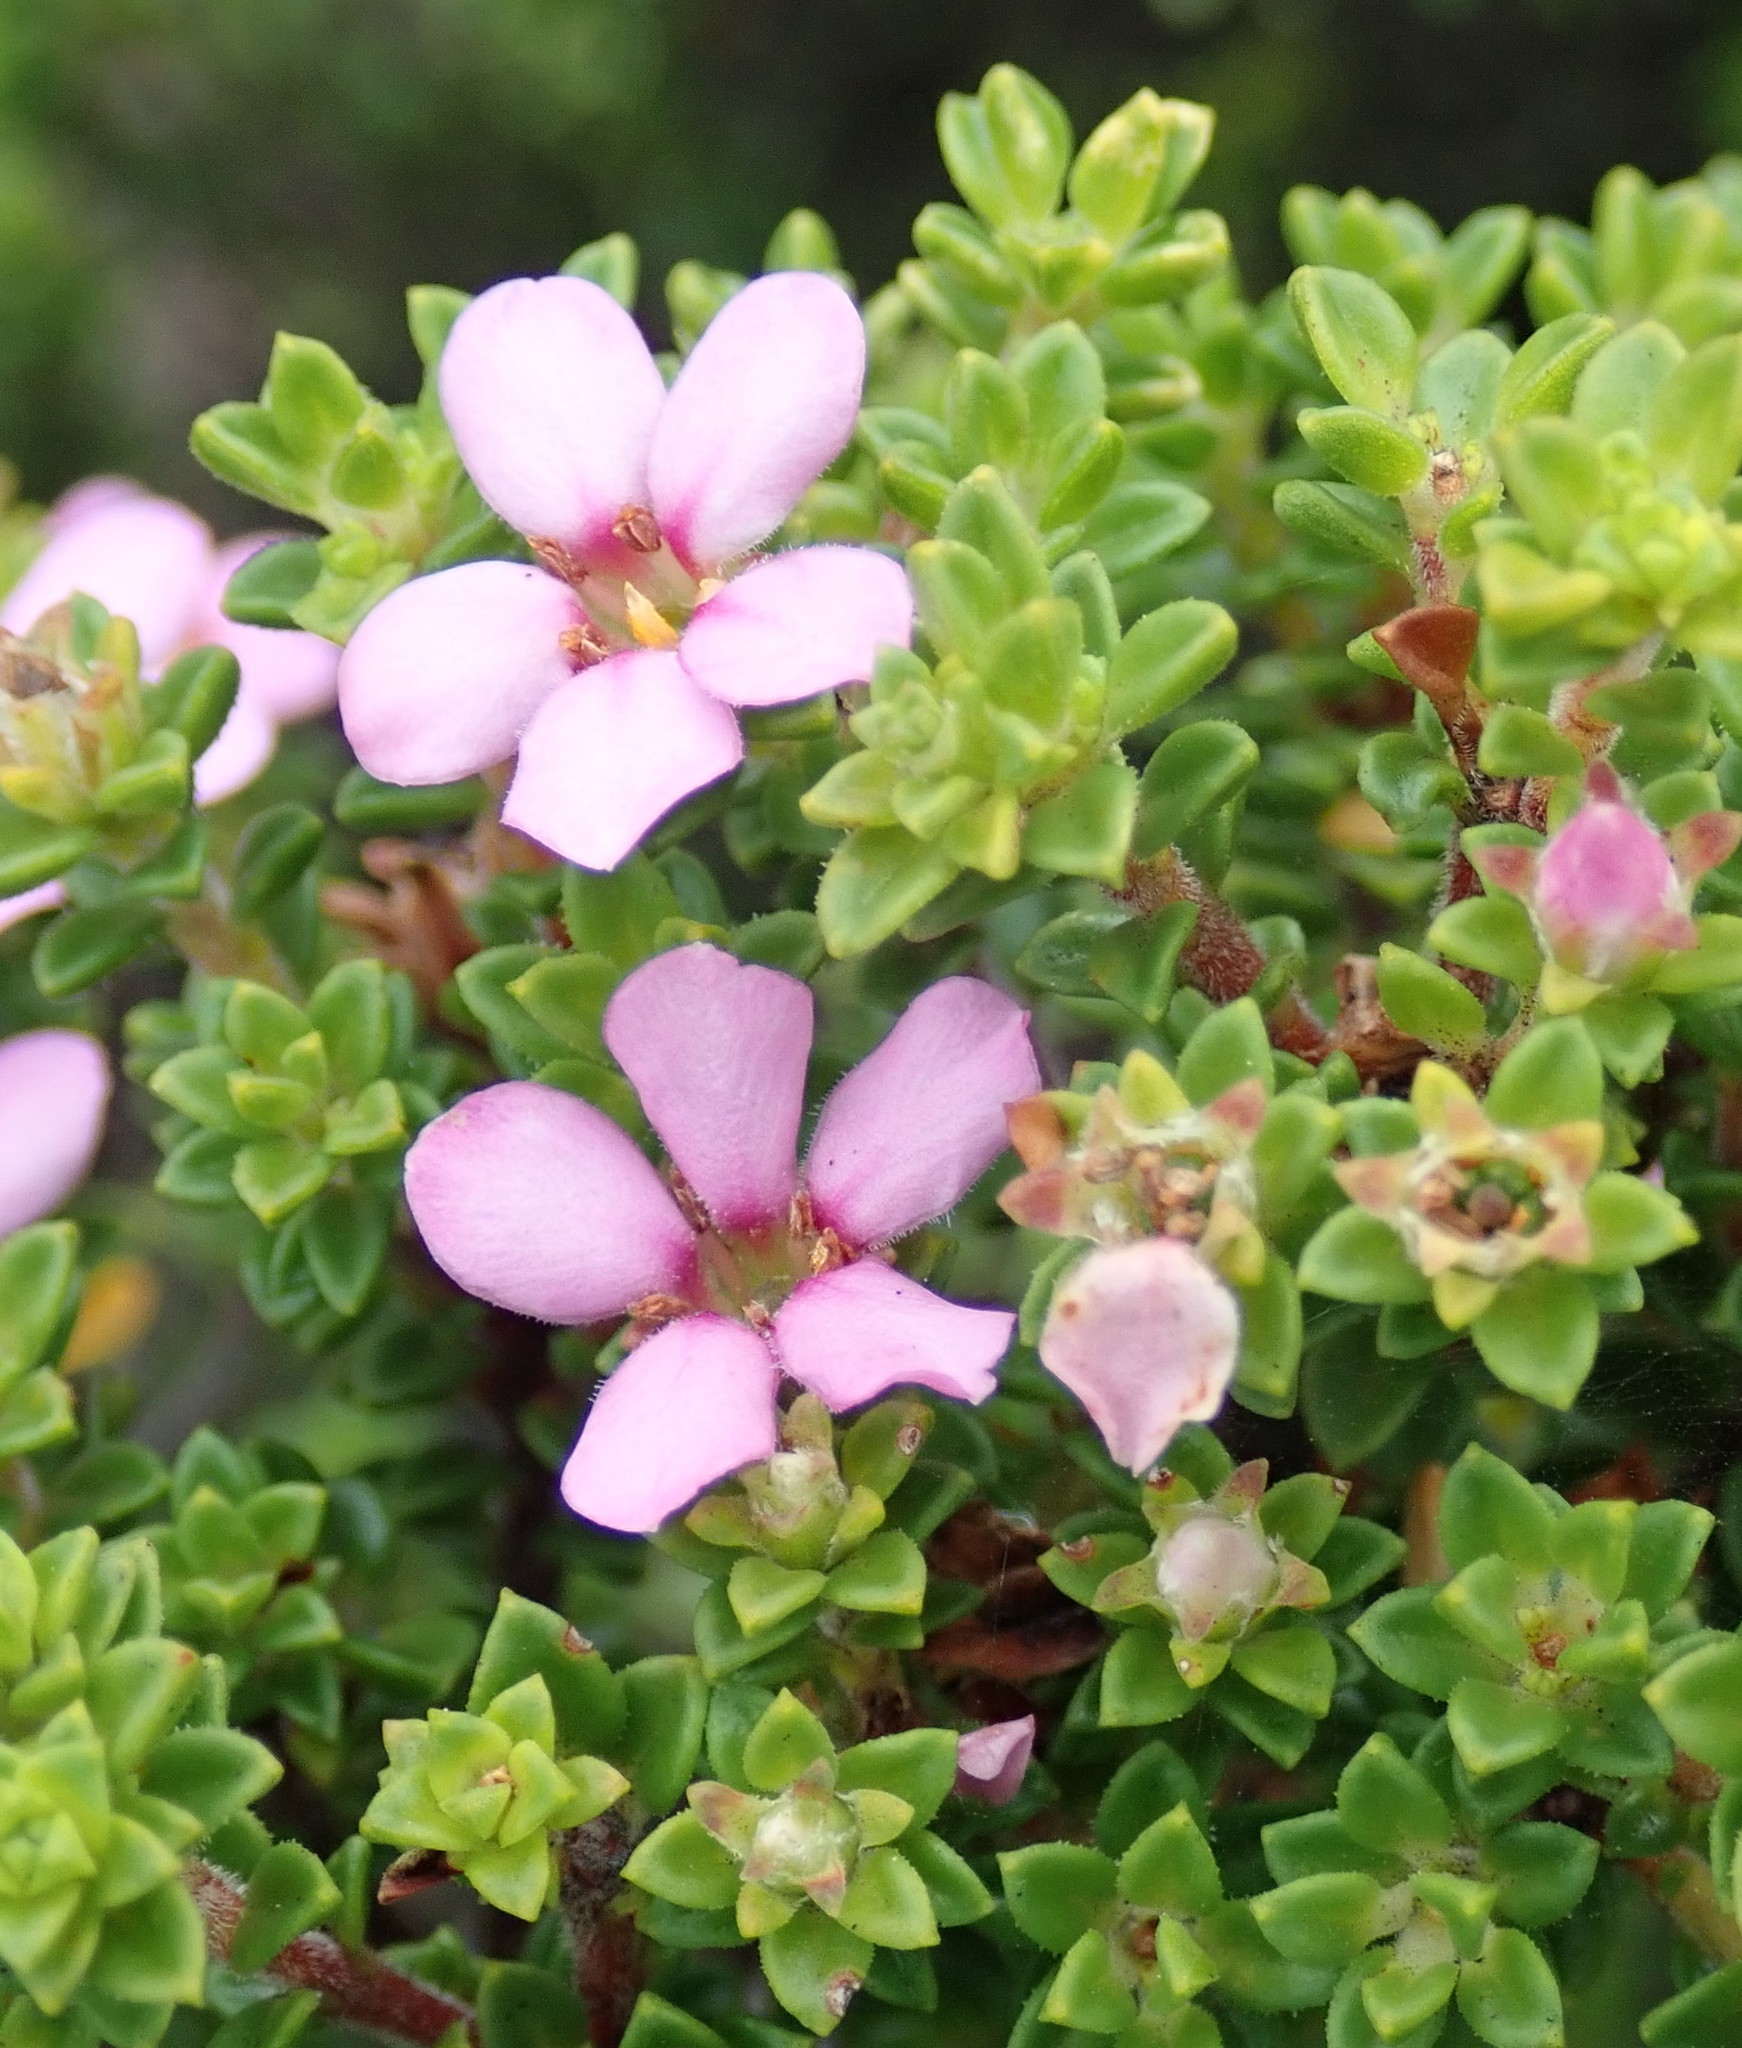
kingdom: Plantae
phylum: Tracheophyta
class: Magnoliopsida
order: Sapindales
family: Rutaceae
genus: Acmadenia
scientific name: Acmadenia heterophylla
